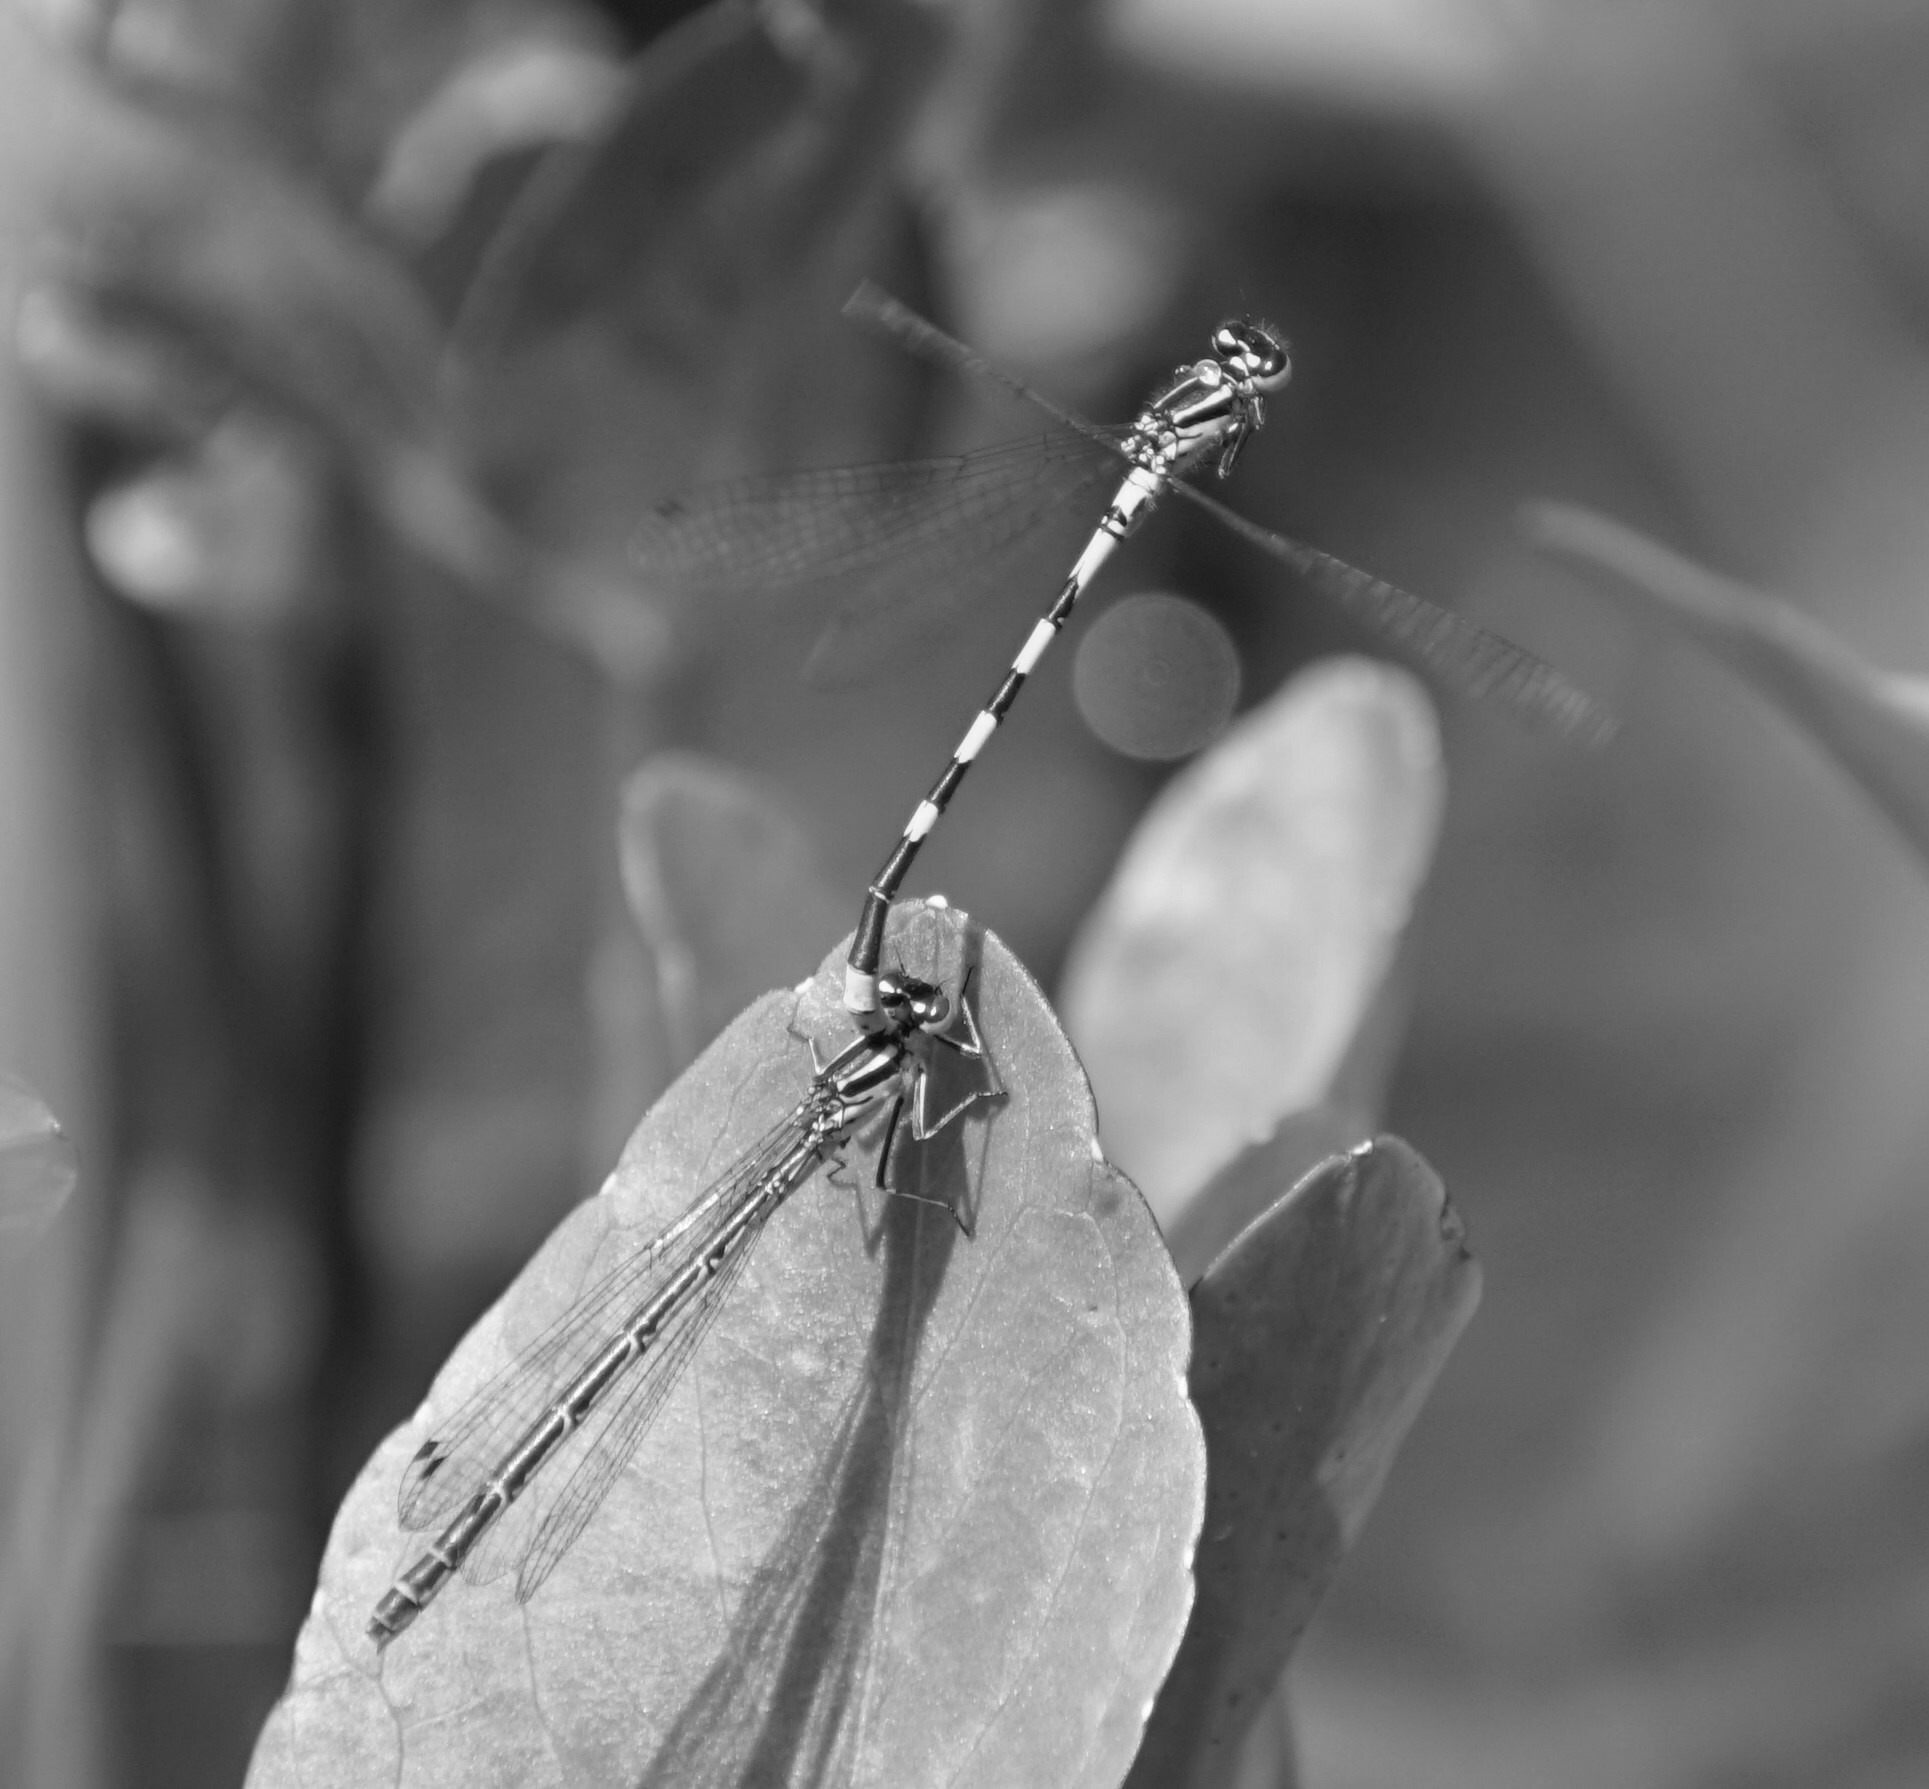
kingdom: Animalia
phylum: Arthropoda
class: Insecta
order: Odonata
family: Coenagrionidae
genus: Coenagrion
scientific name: Coenagrion hastulatum
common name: Spearhead bluet
